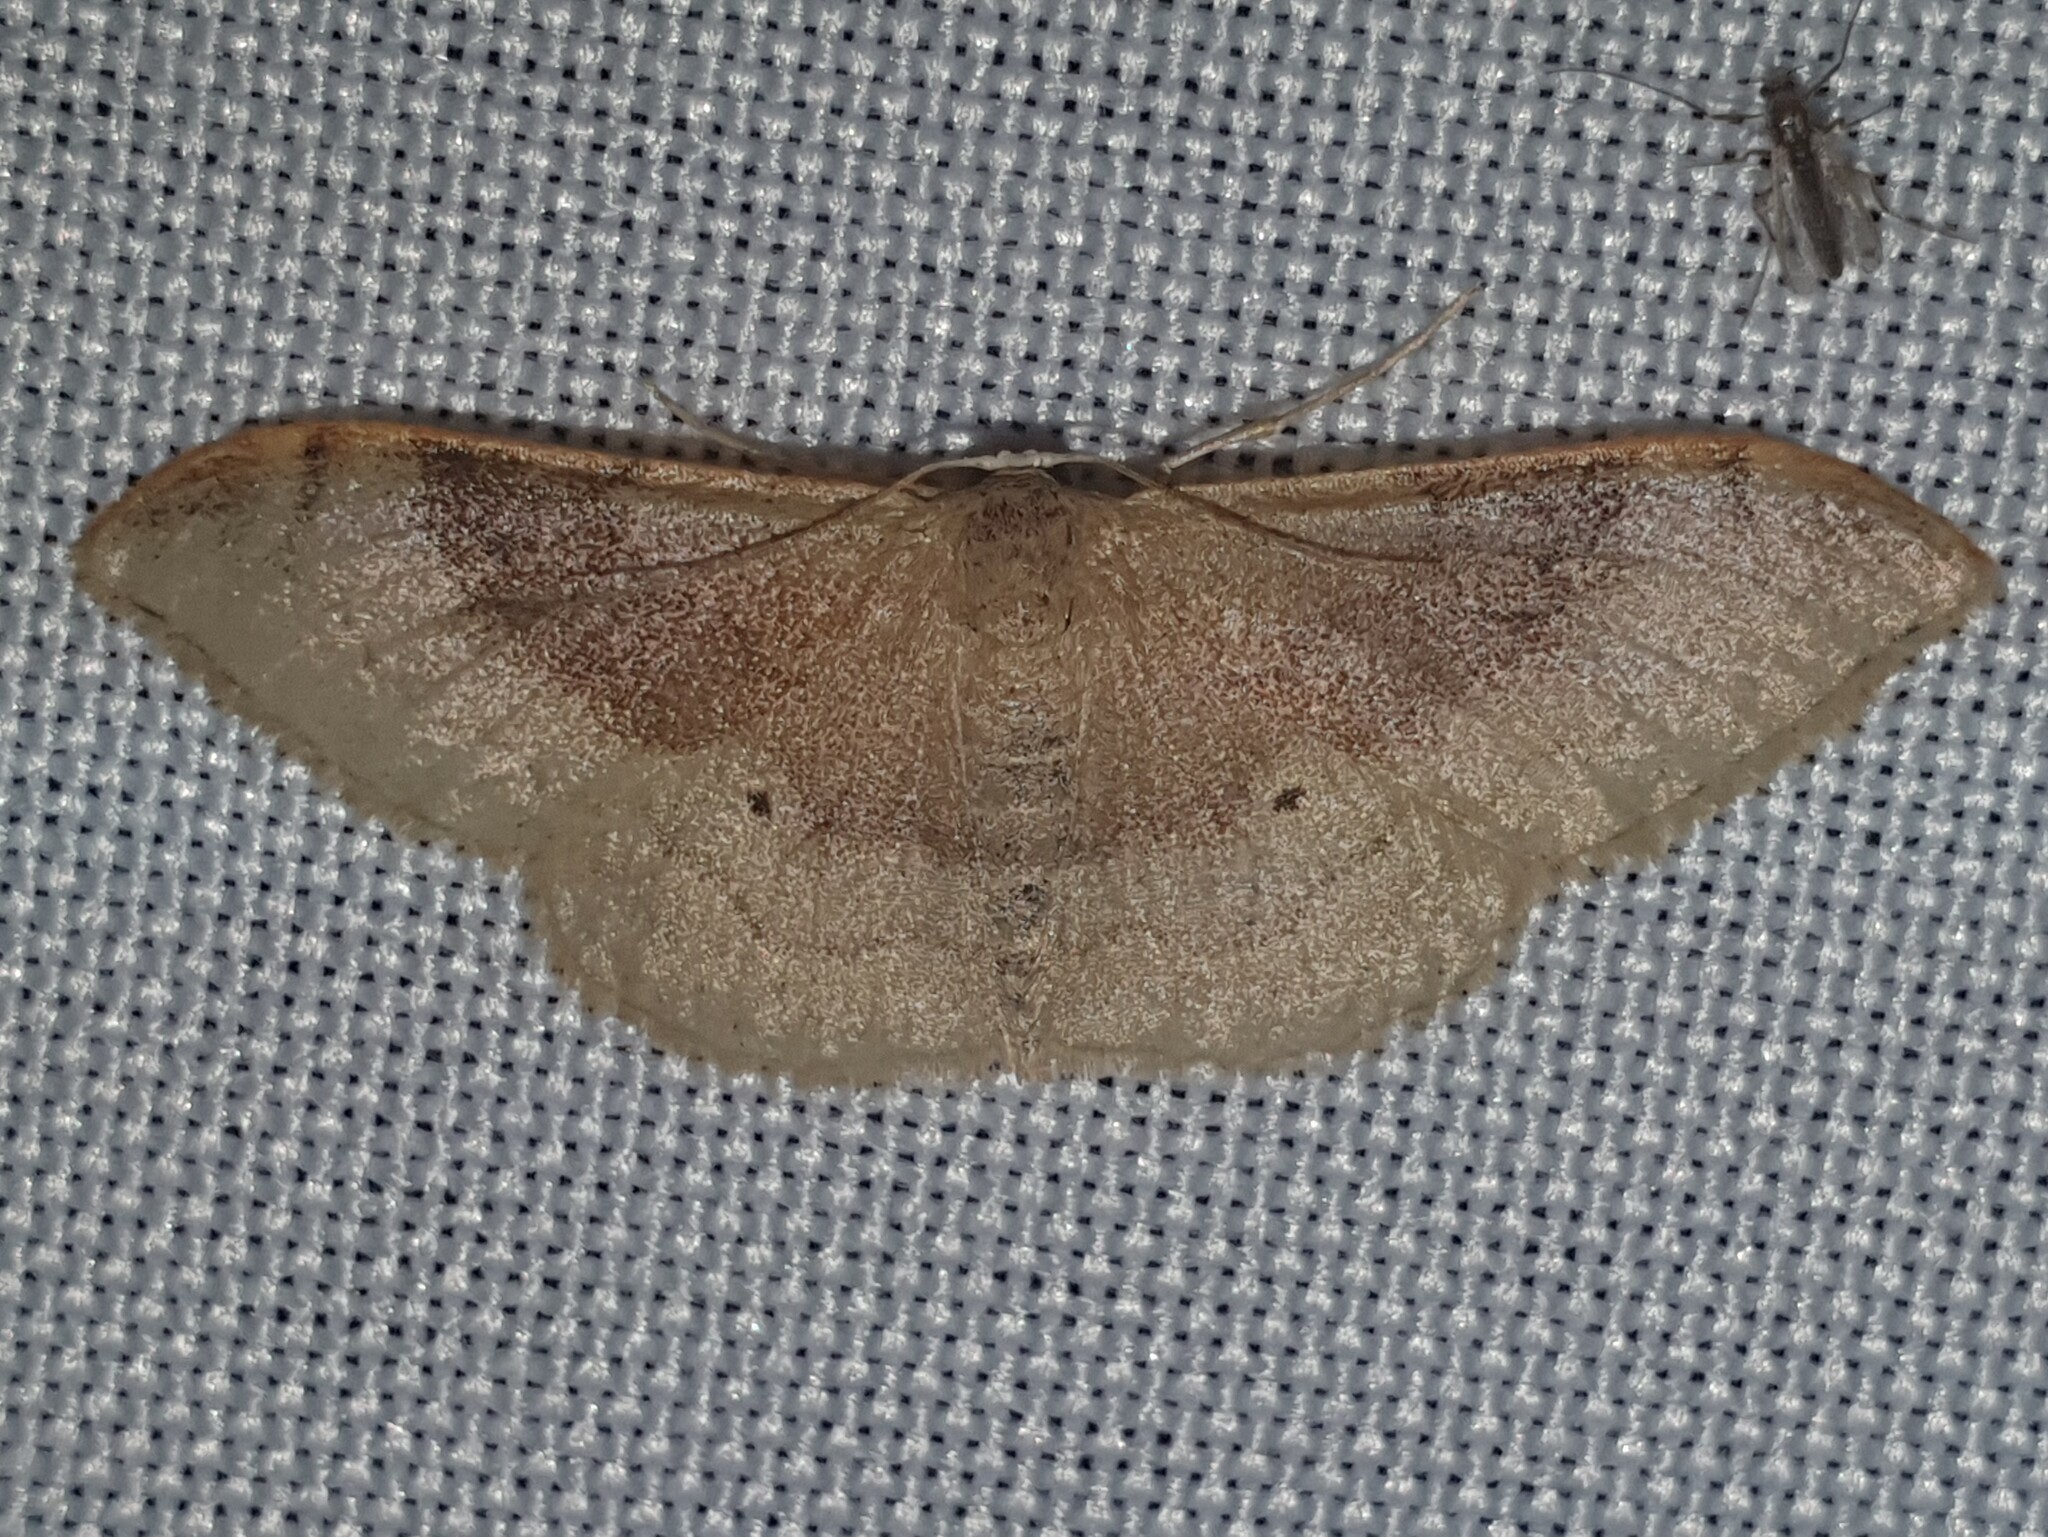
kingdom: Animalia
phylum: Arthropoda
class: Insecta
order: Lepidoptera
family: Geometridae
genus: Idaea
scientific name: Idaea degeneraria
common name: Portland ribbon wave
